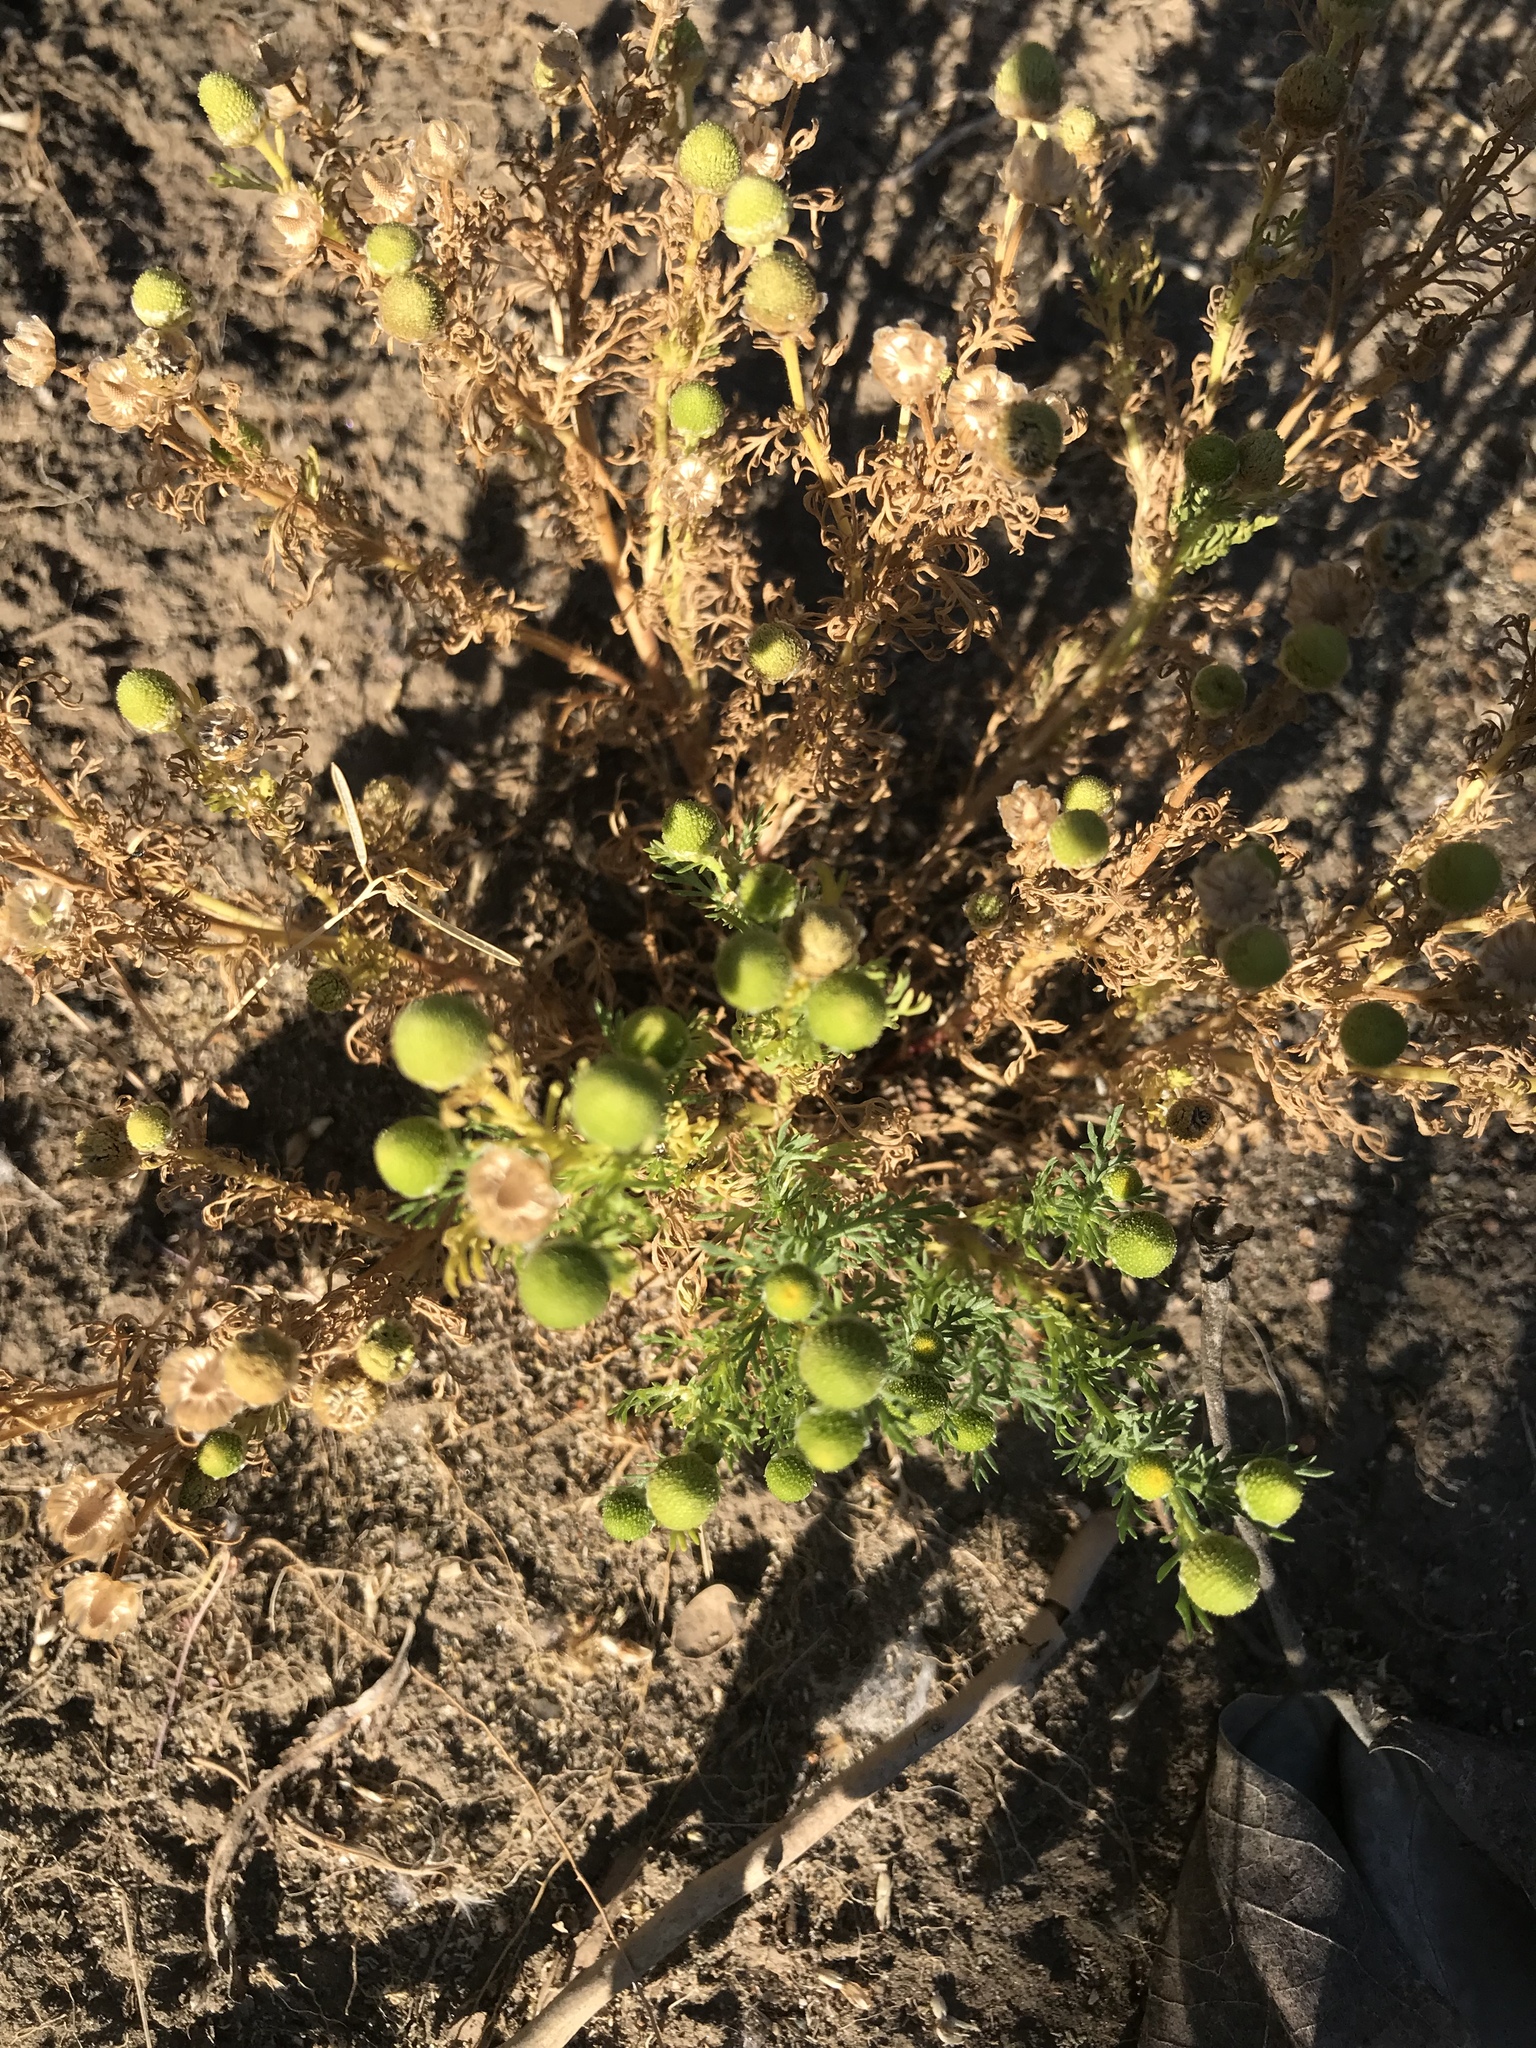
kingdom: Plantae
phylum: Tracheophyta
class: Magnoliopsida
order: Asterales
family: Asteraceae
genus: Matricaria
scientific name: Matricaria discoidea
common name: Disc mayweed
